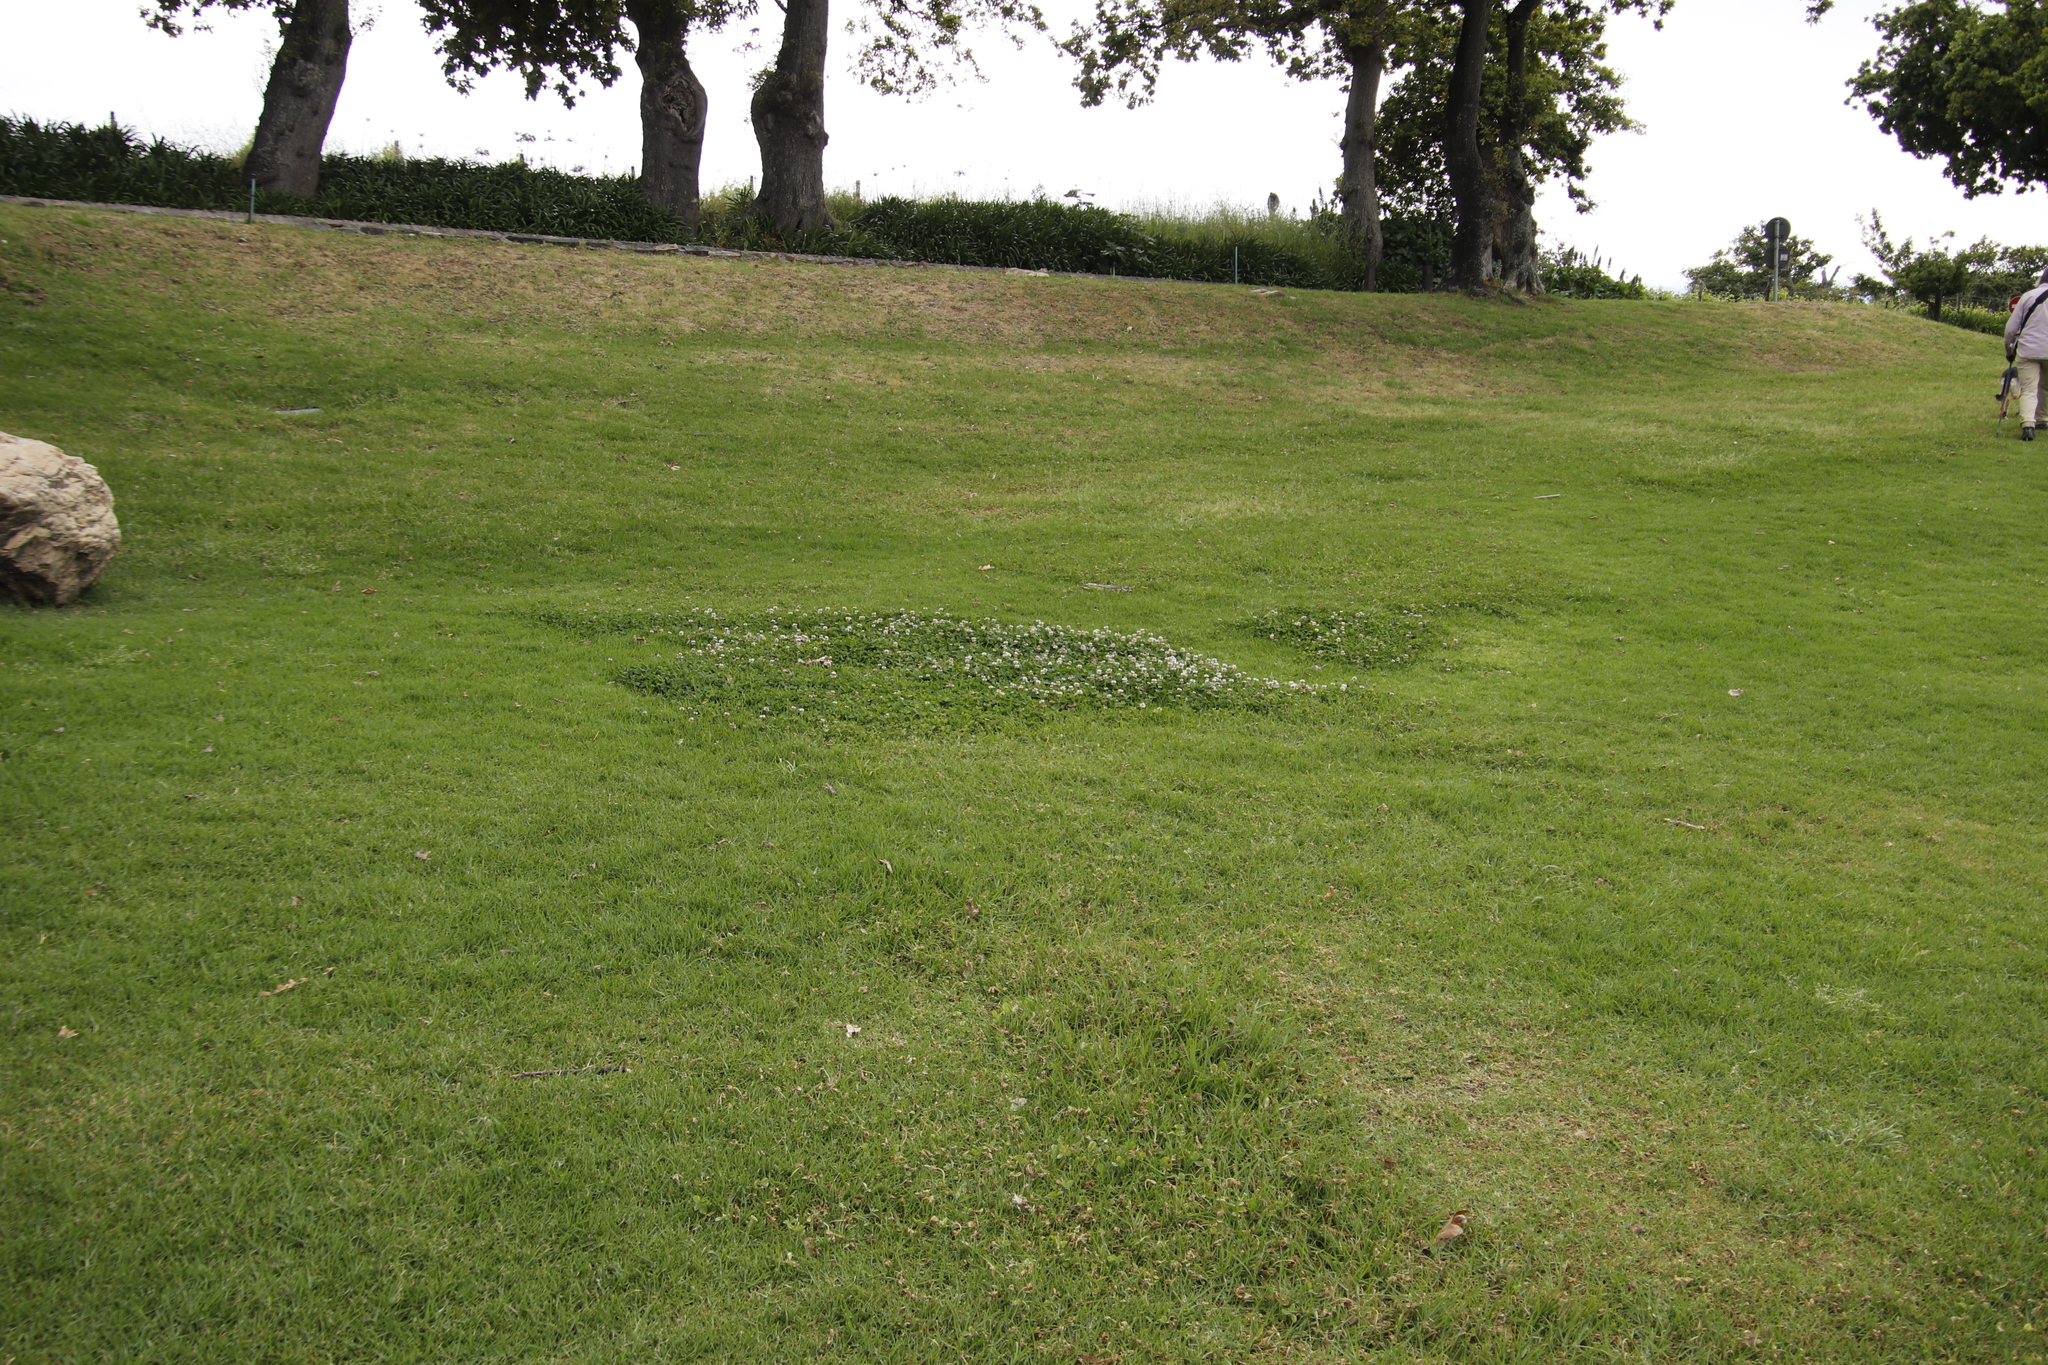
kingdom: Plantae
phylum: Tracheophyta
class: Magnoliopsida
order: Fabales
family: Fabaceae
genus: Trifolium
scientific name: Trifolium repens
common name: White clover
